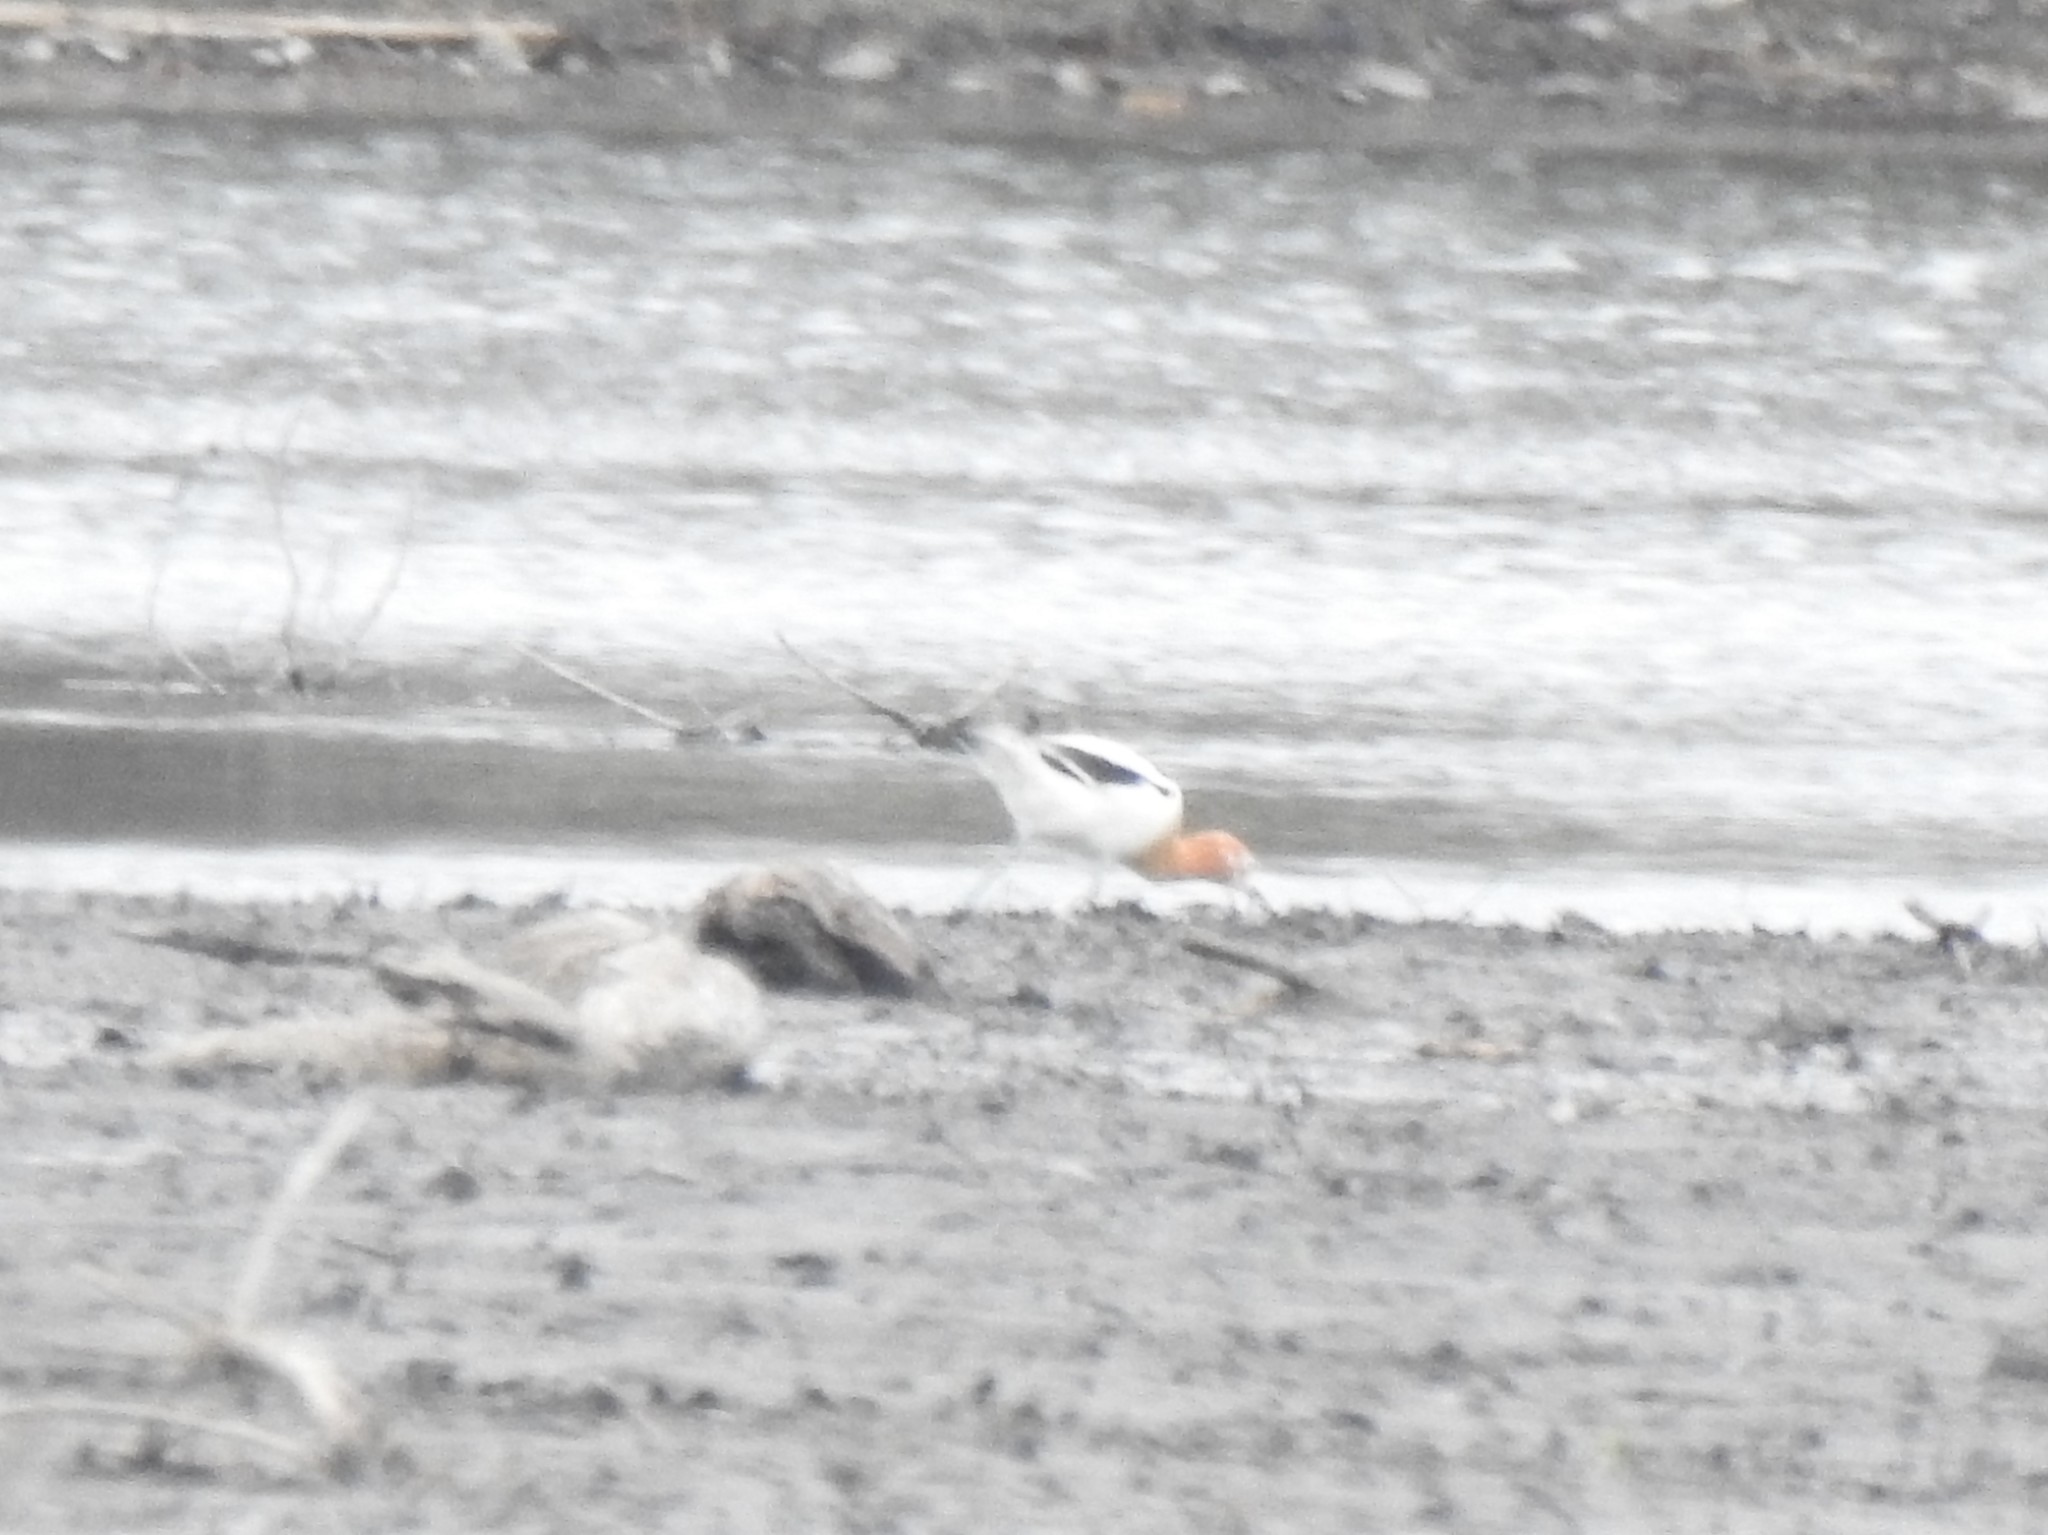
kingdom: Animalia
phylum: Chordata
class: Aves
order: Charadriiformes
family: Recurvirostridae
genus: Recurvirostra
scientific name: Recurvirostra americana
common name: American avocet
